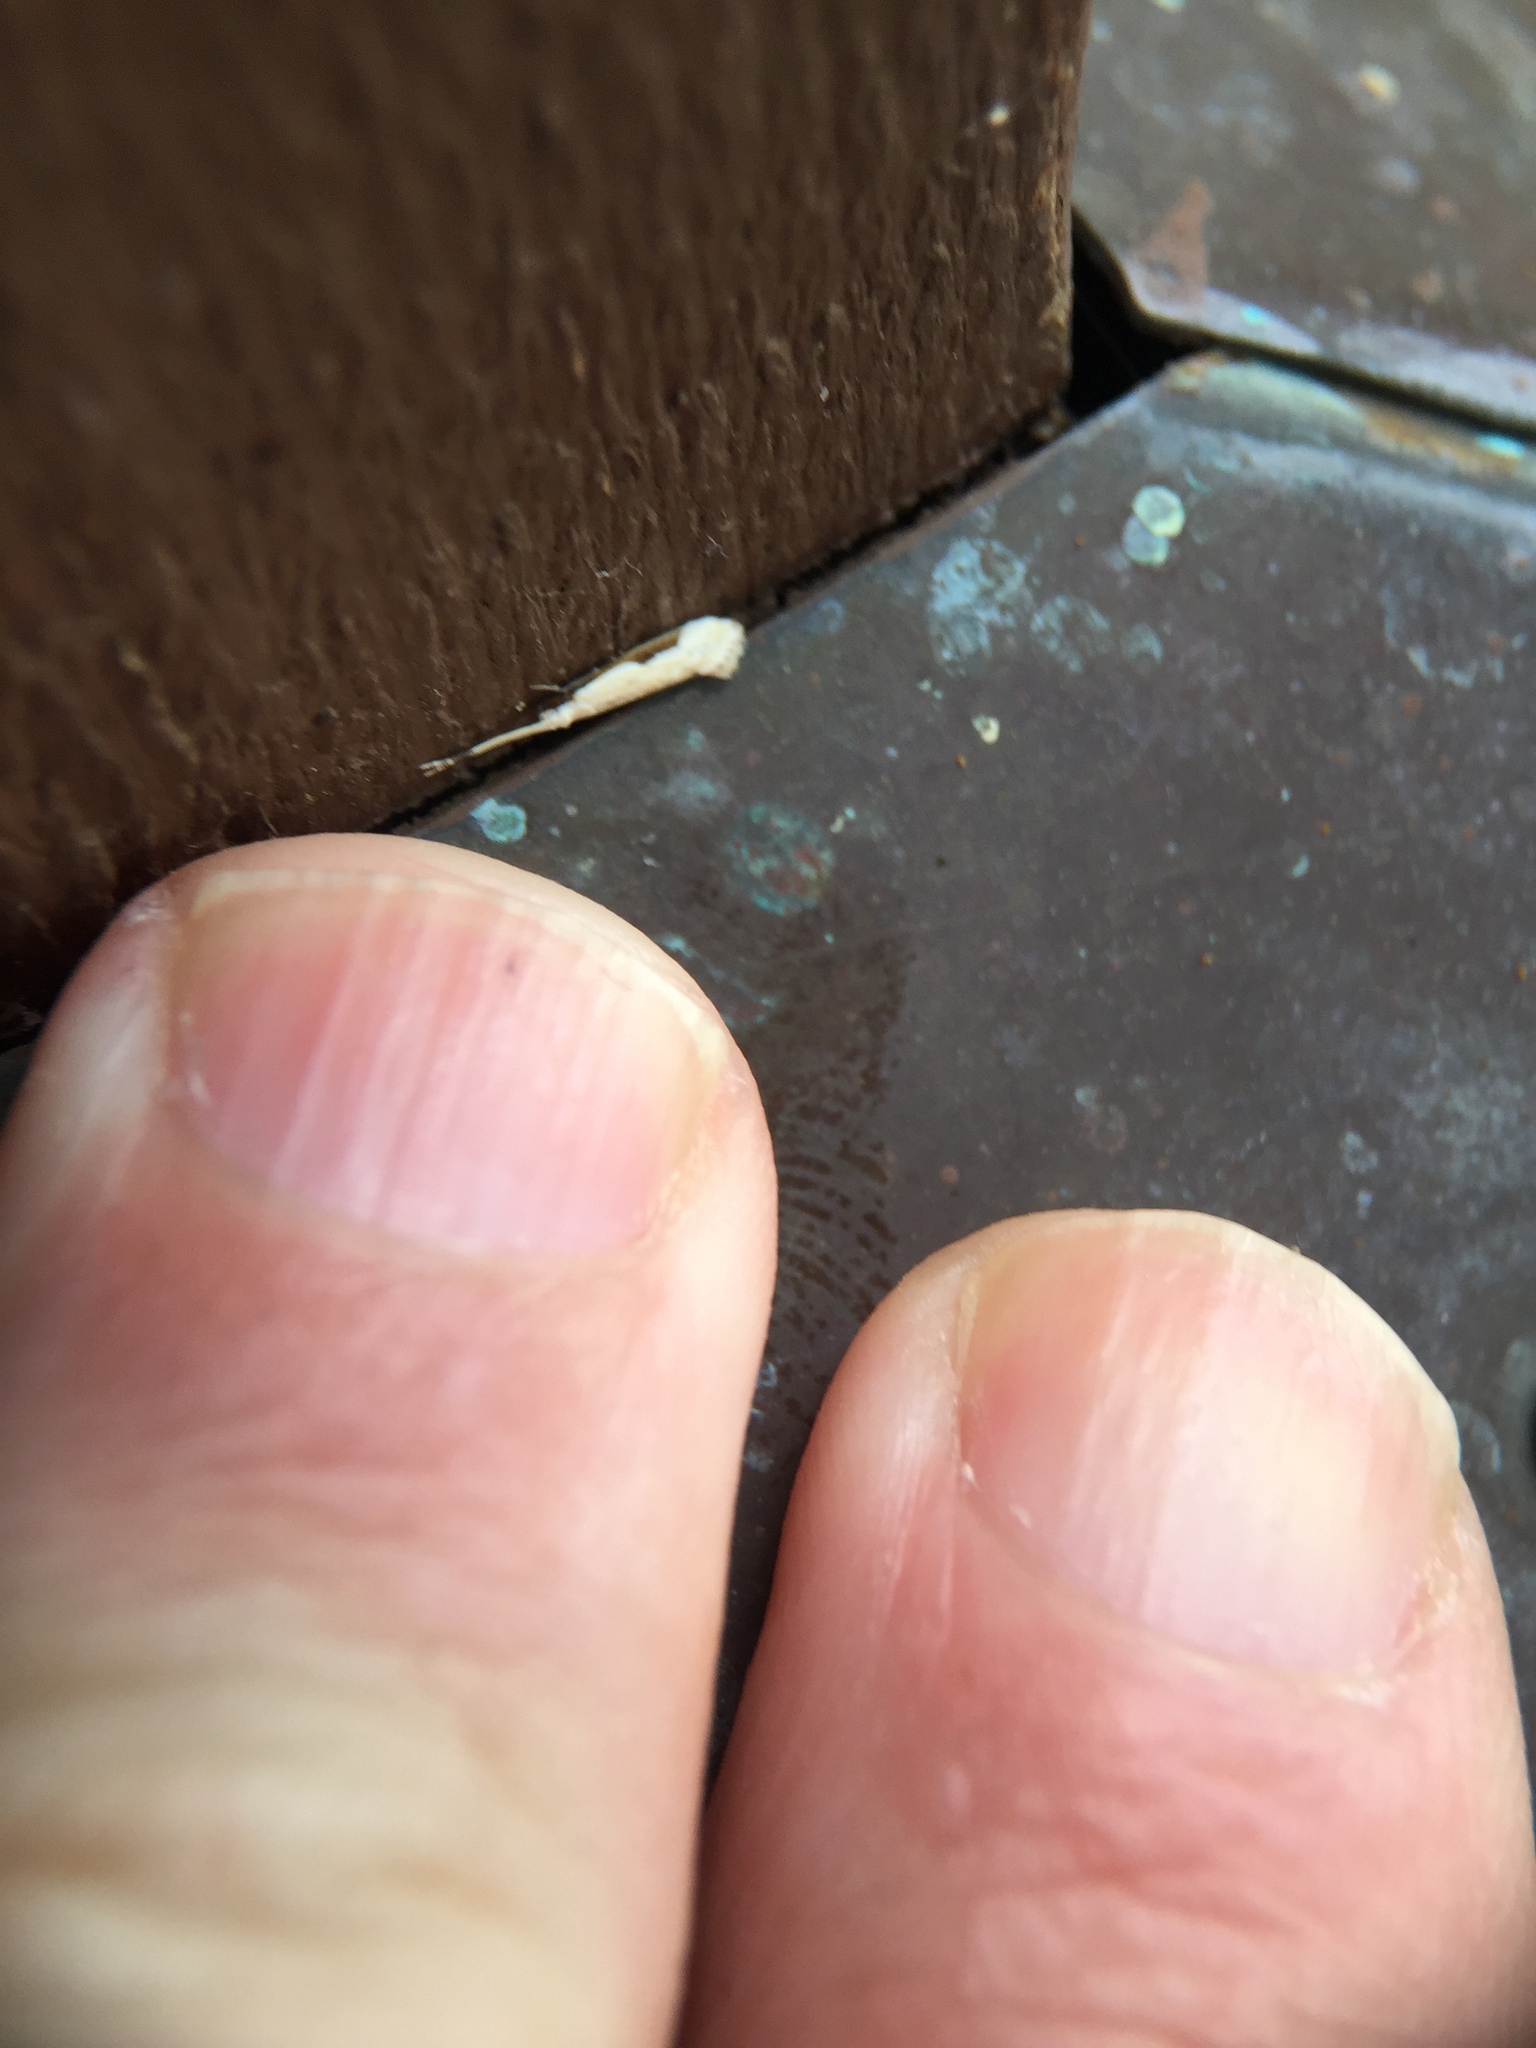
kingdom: Animalia
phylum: Arthropoda
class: Insecta
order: Lepidoptera
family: Tineidae
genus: Sagephora
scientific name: Sagephora phortegella
